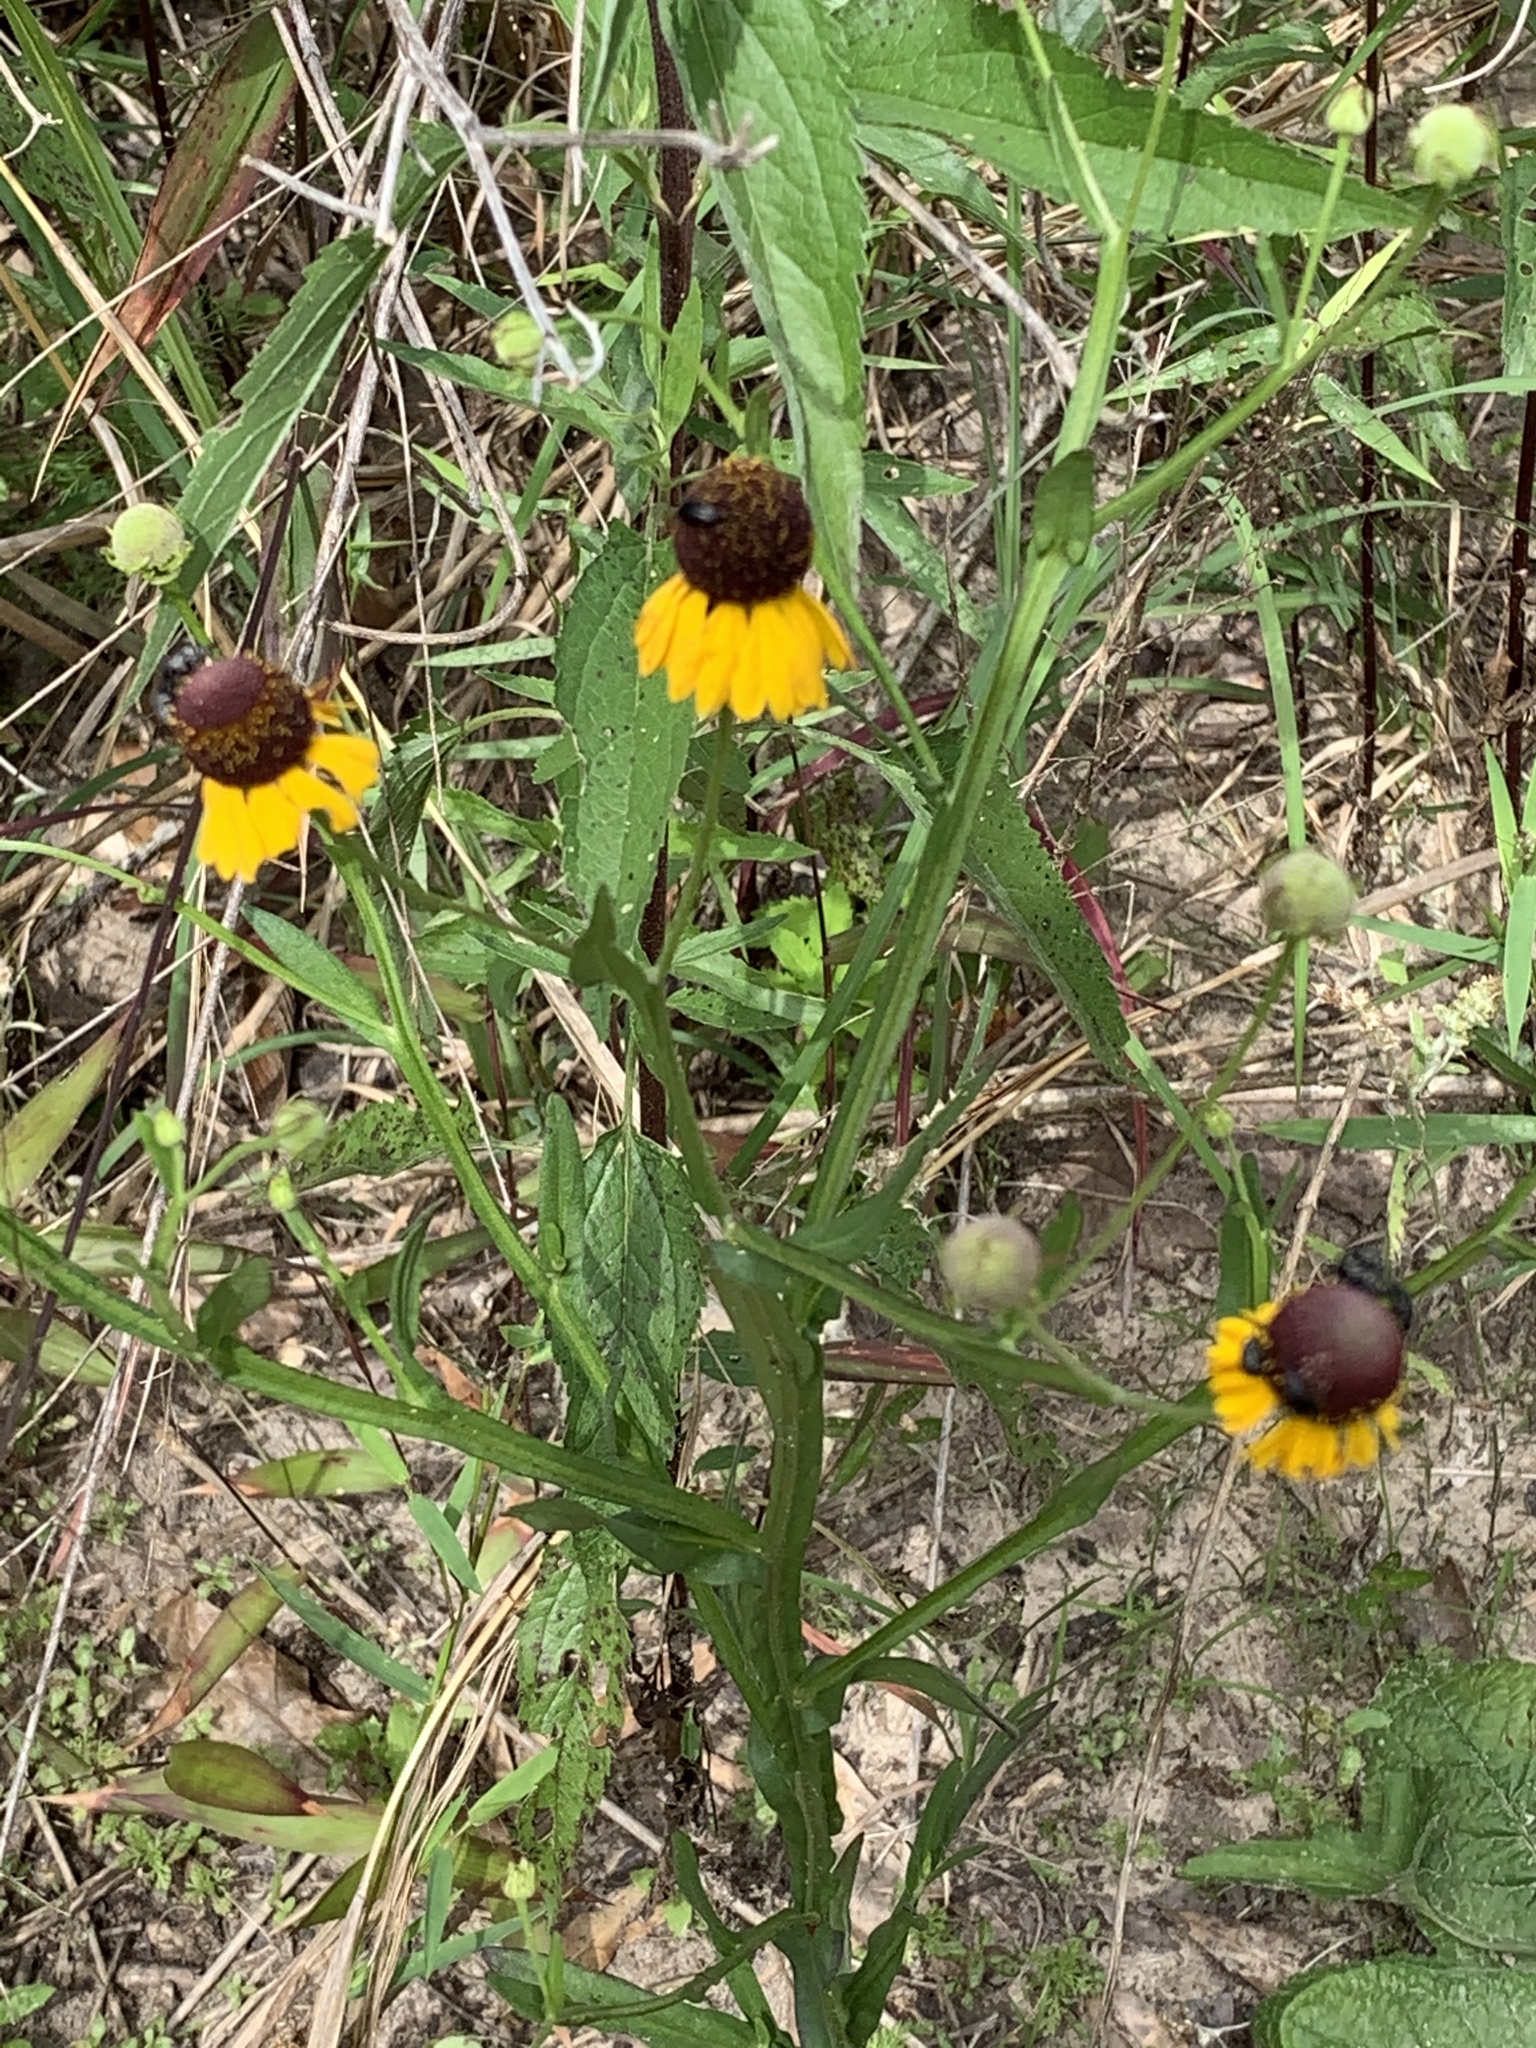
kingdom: Plantae
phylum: Tracheophyta
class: Magnoliopsida
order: Asterales
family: Asteraceae
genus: Helenium
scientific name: Helenium flexuosum
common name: Naked-flowered sneezeweed
